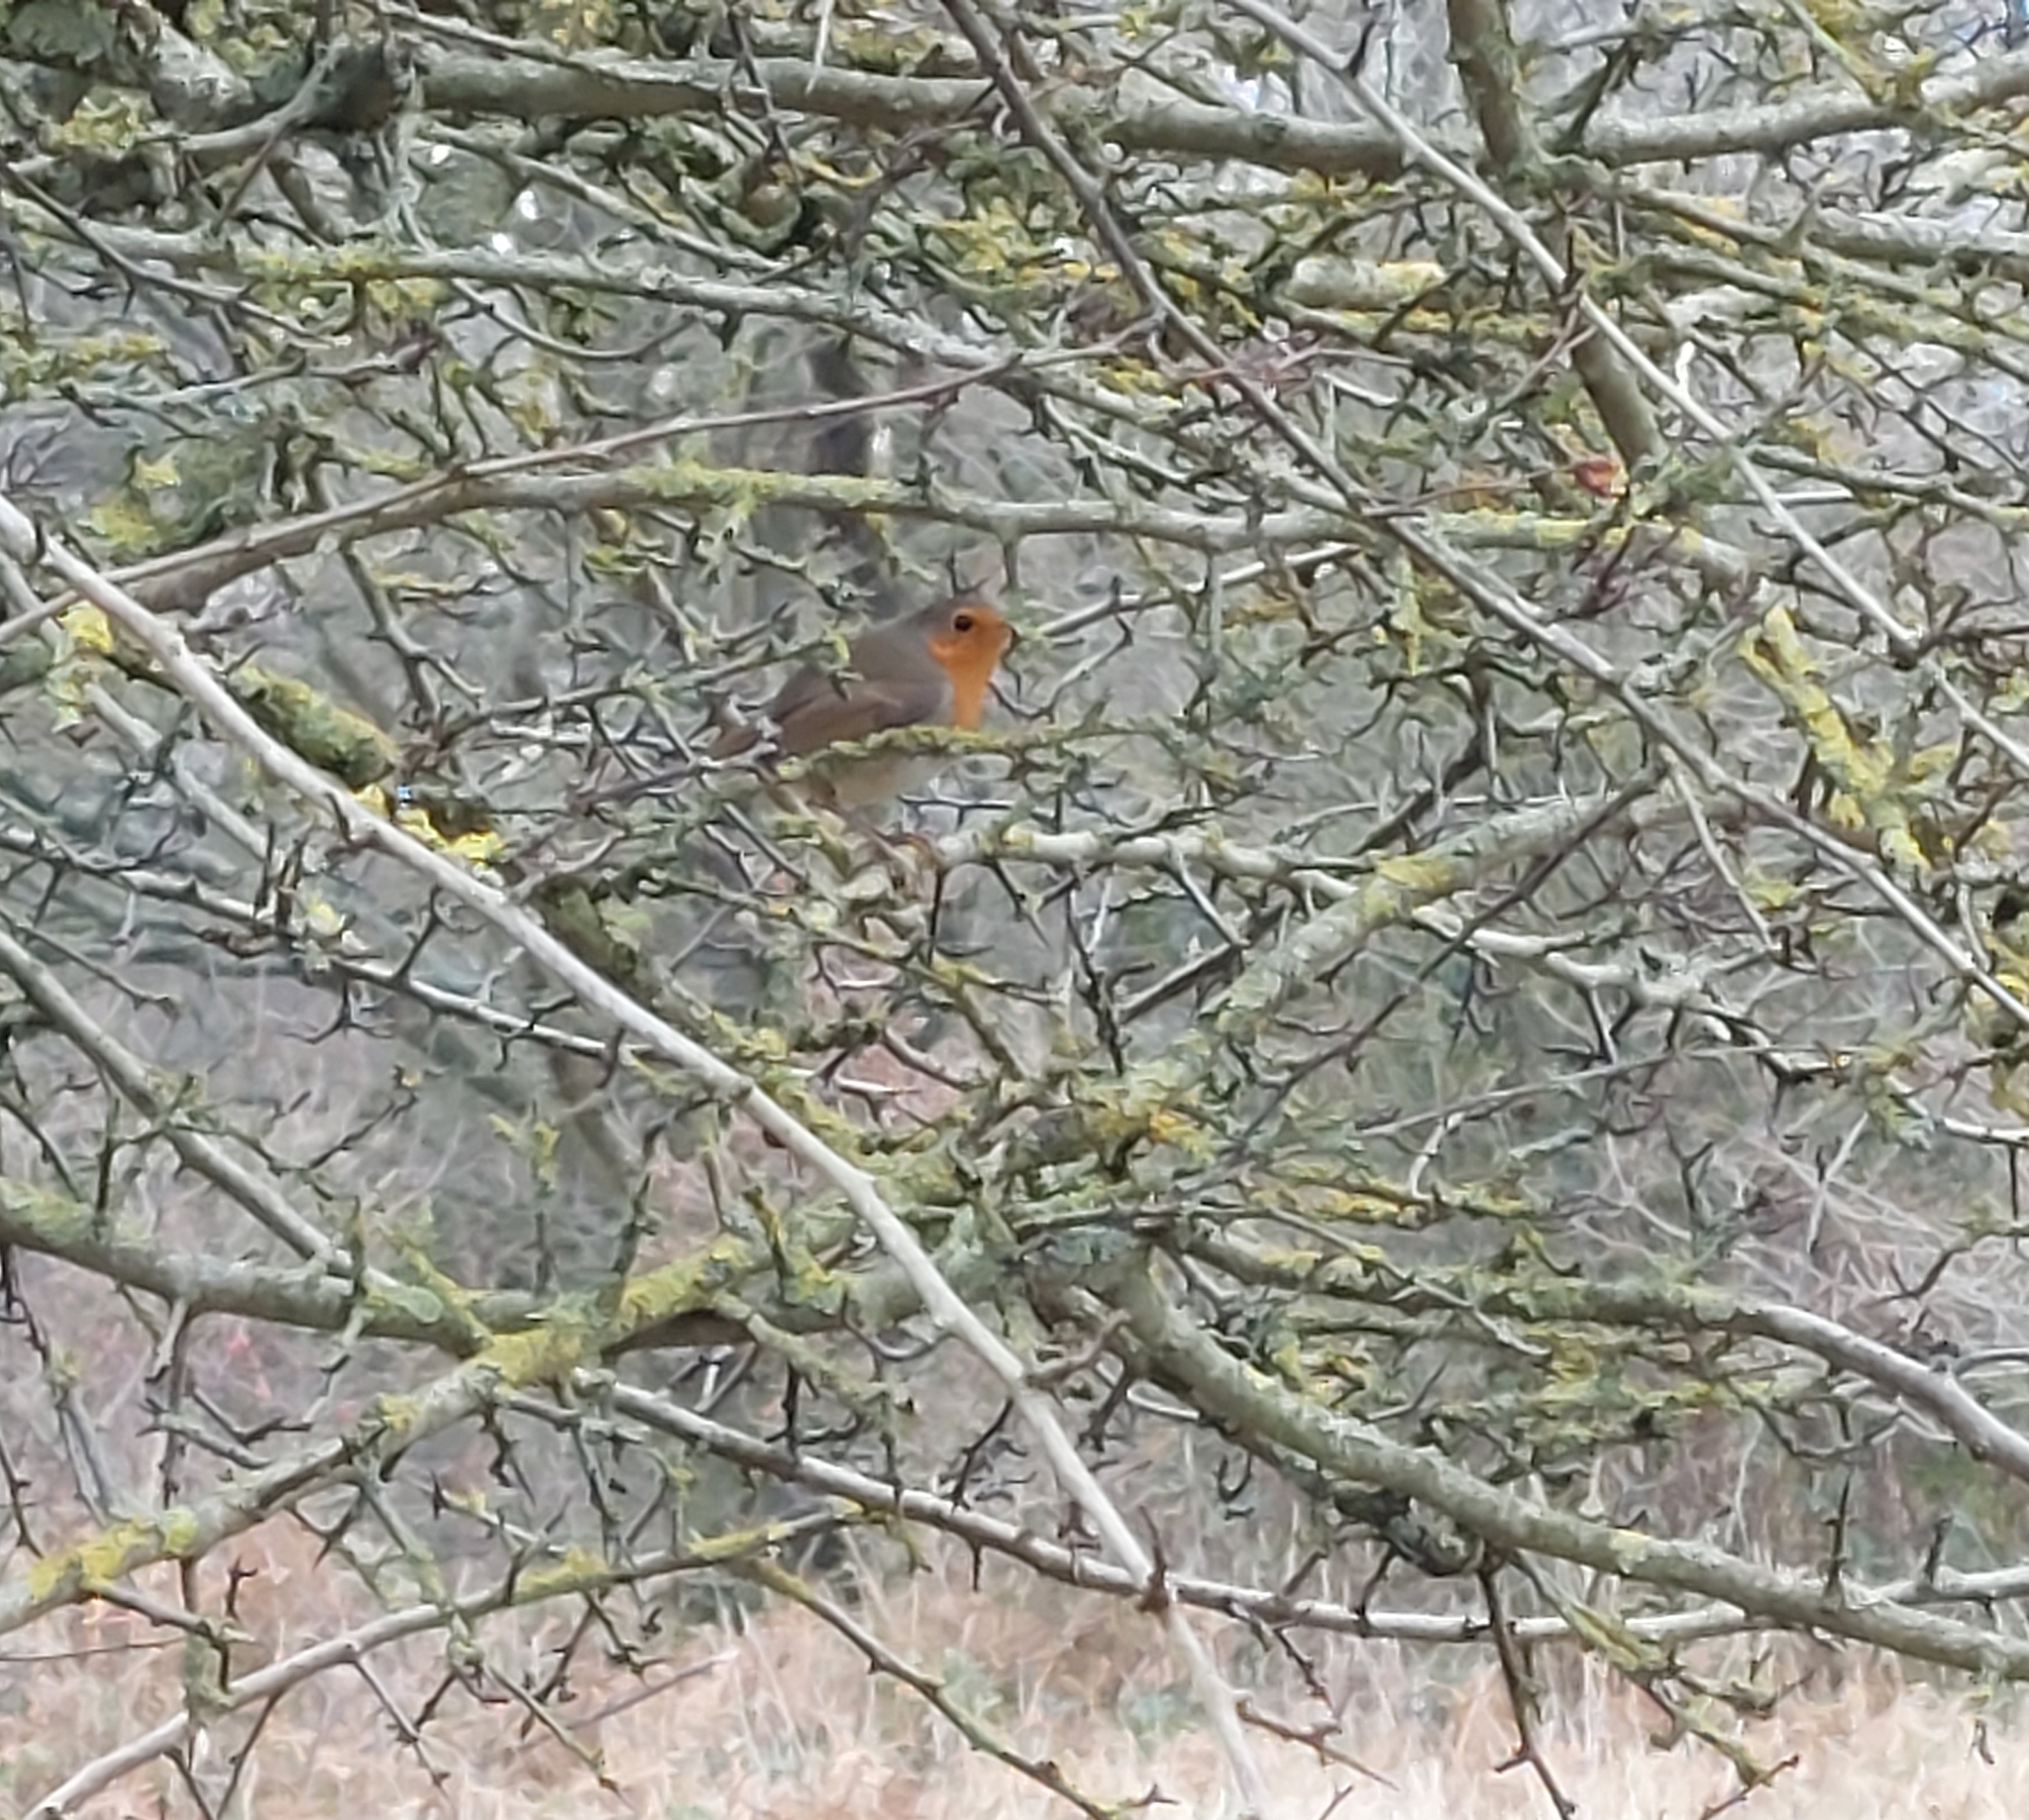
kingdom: Animalia
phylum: Chordata
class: Aves
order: Passeriformes
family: Muscicapidae
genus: Erithacus
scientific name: Erithacus rubecula
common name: European robin
